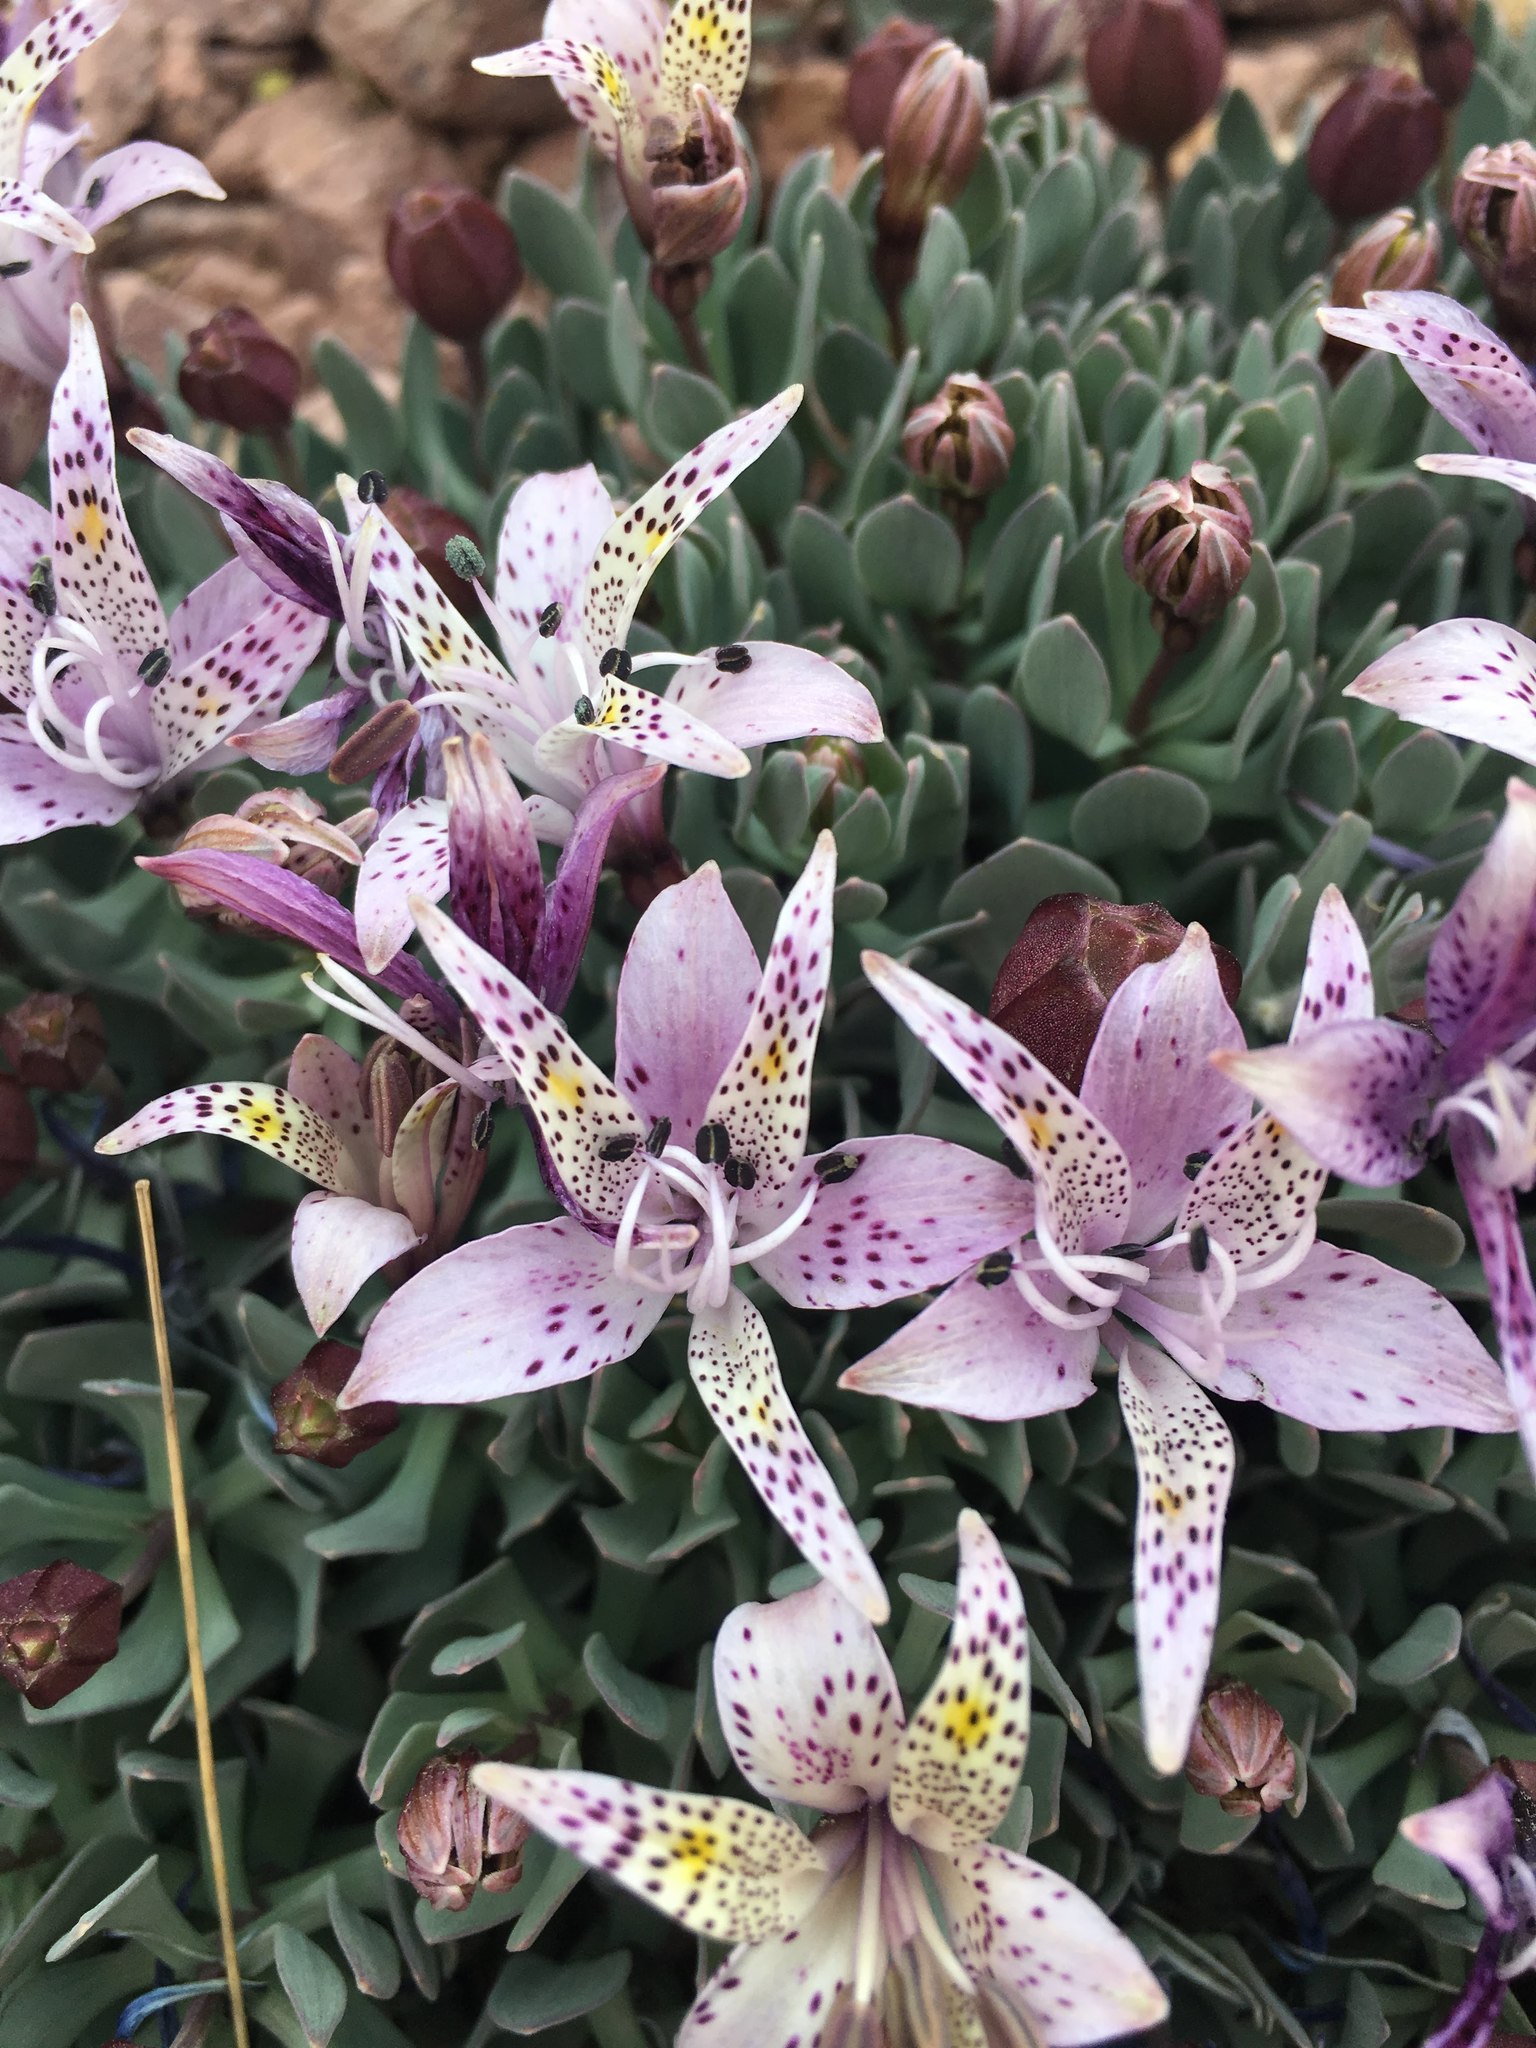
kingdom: Plantae
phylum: Tracheophyta
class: Liliopsida
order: Liliales
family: Alstroemeriaceae
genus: Alstroemeria
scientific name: Alstroemeria andina
